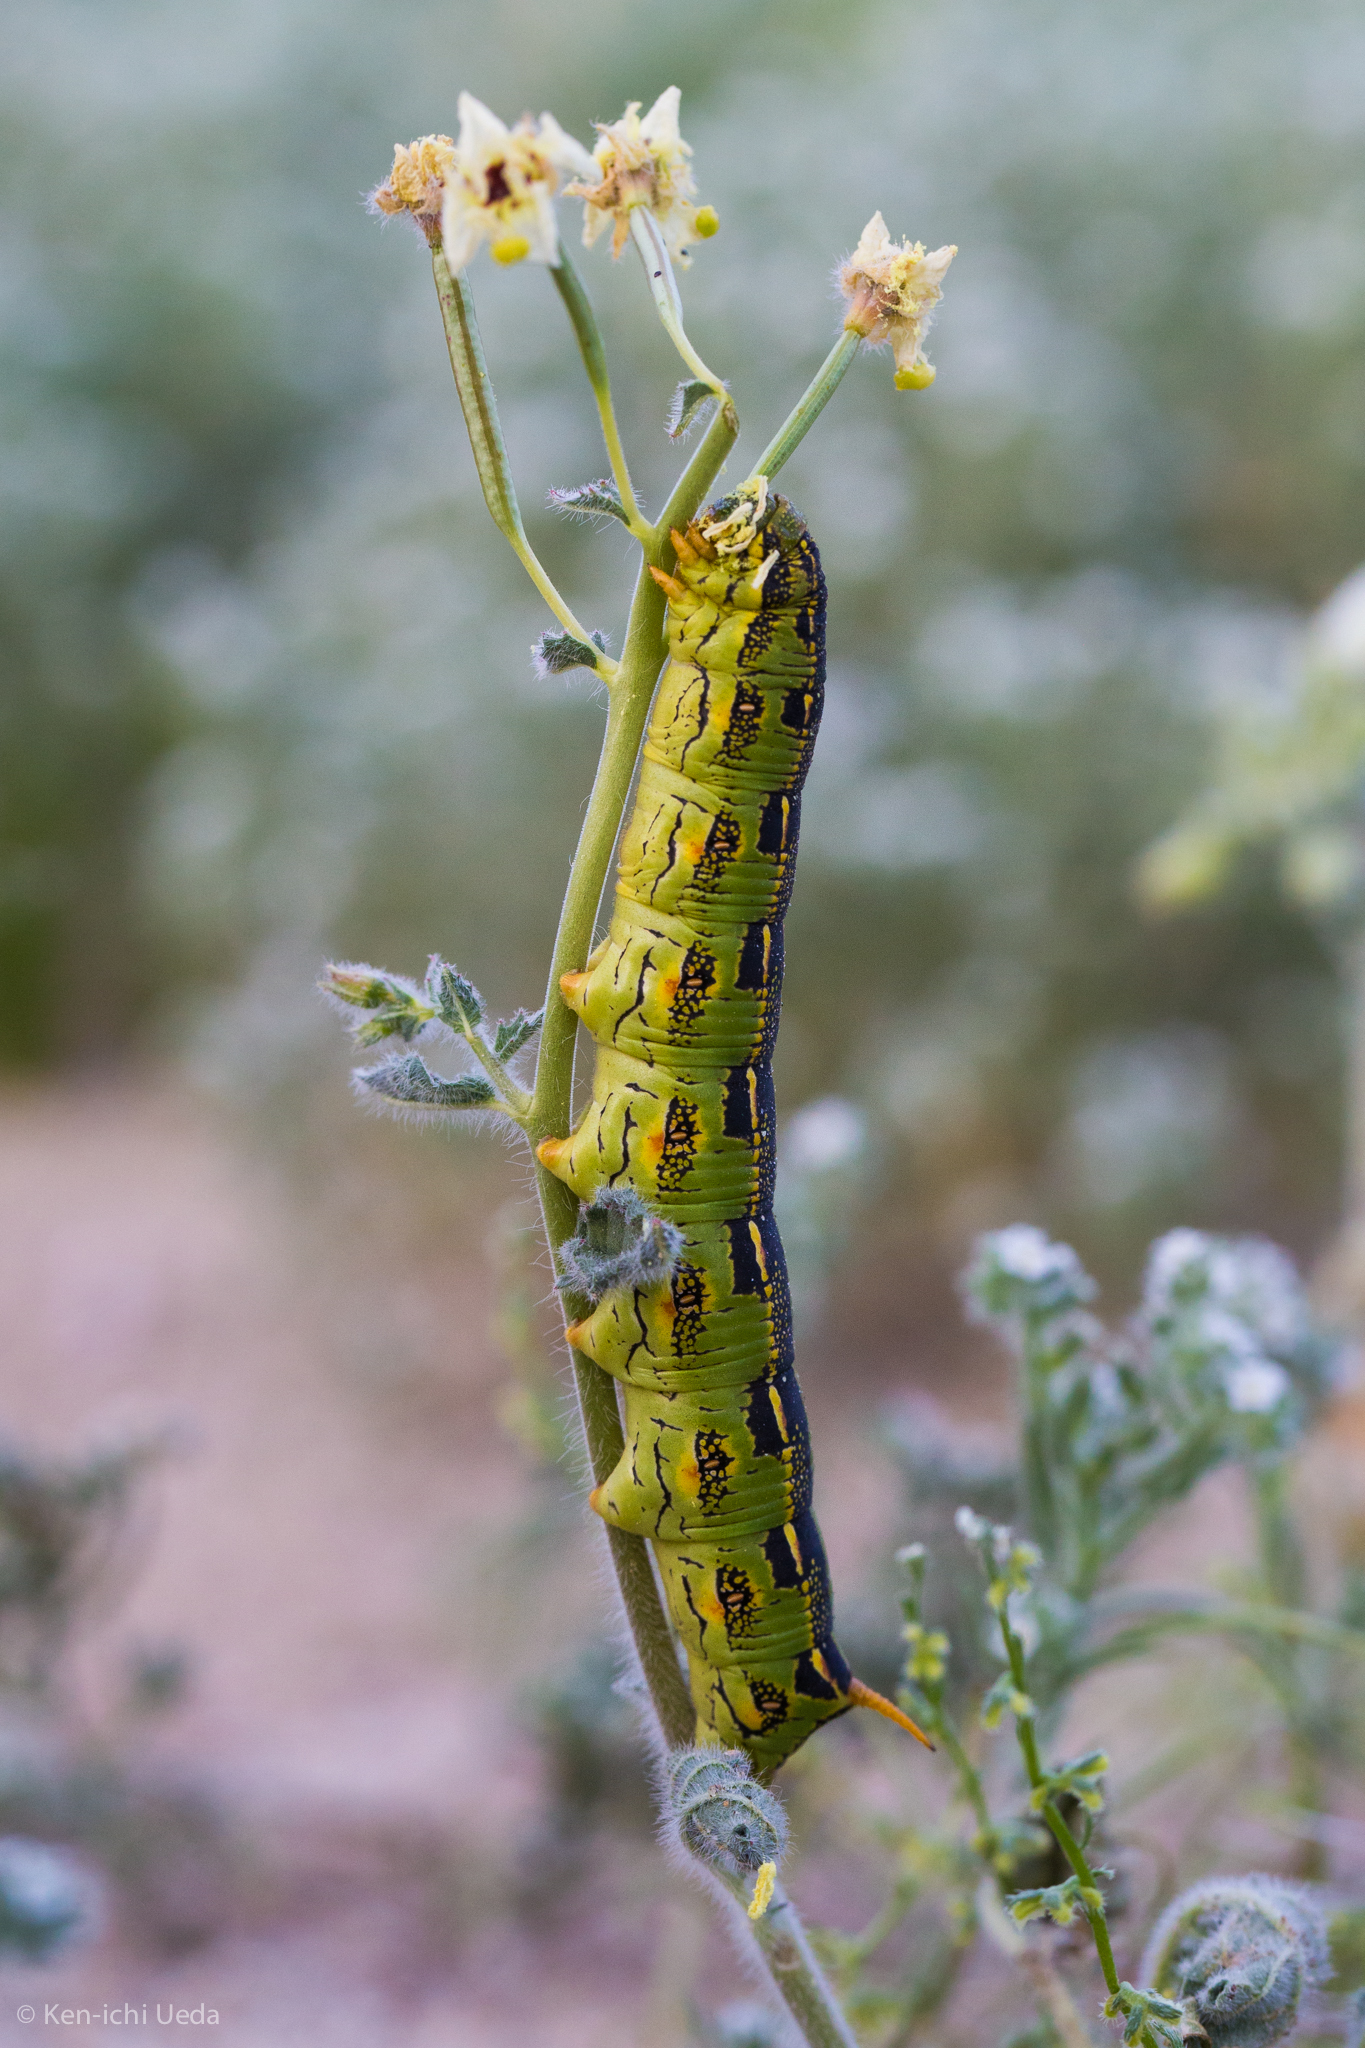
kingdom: Animalia
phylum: Arthropoda
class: Insecta
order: Lepidoptera
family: Sphingidae
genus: Hyles
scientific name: Hyles lineata
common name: White-lined sphinx
